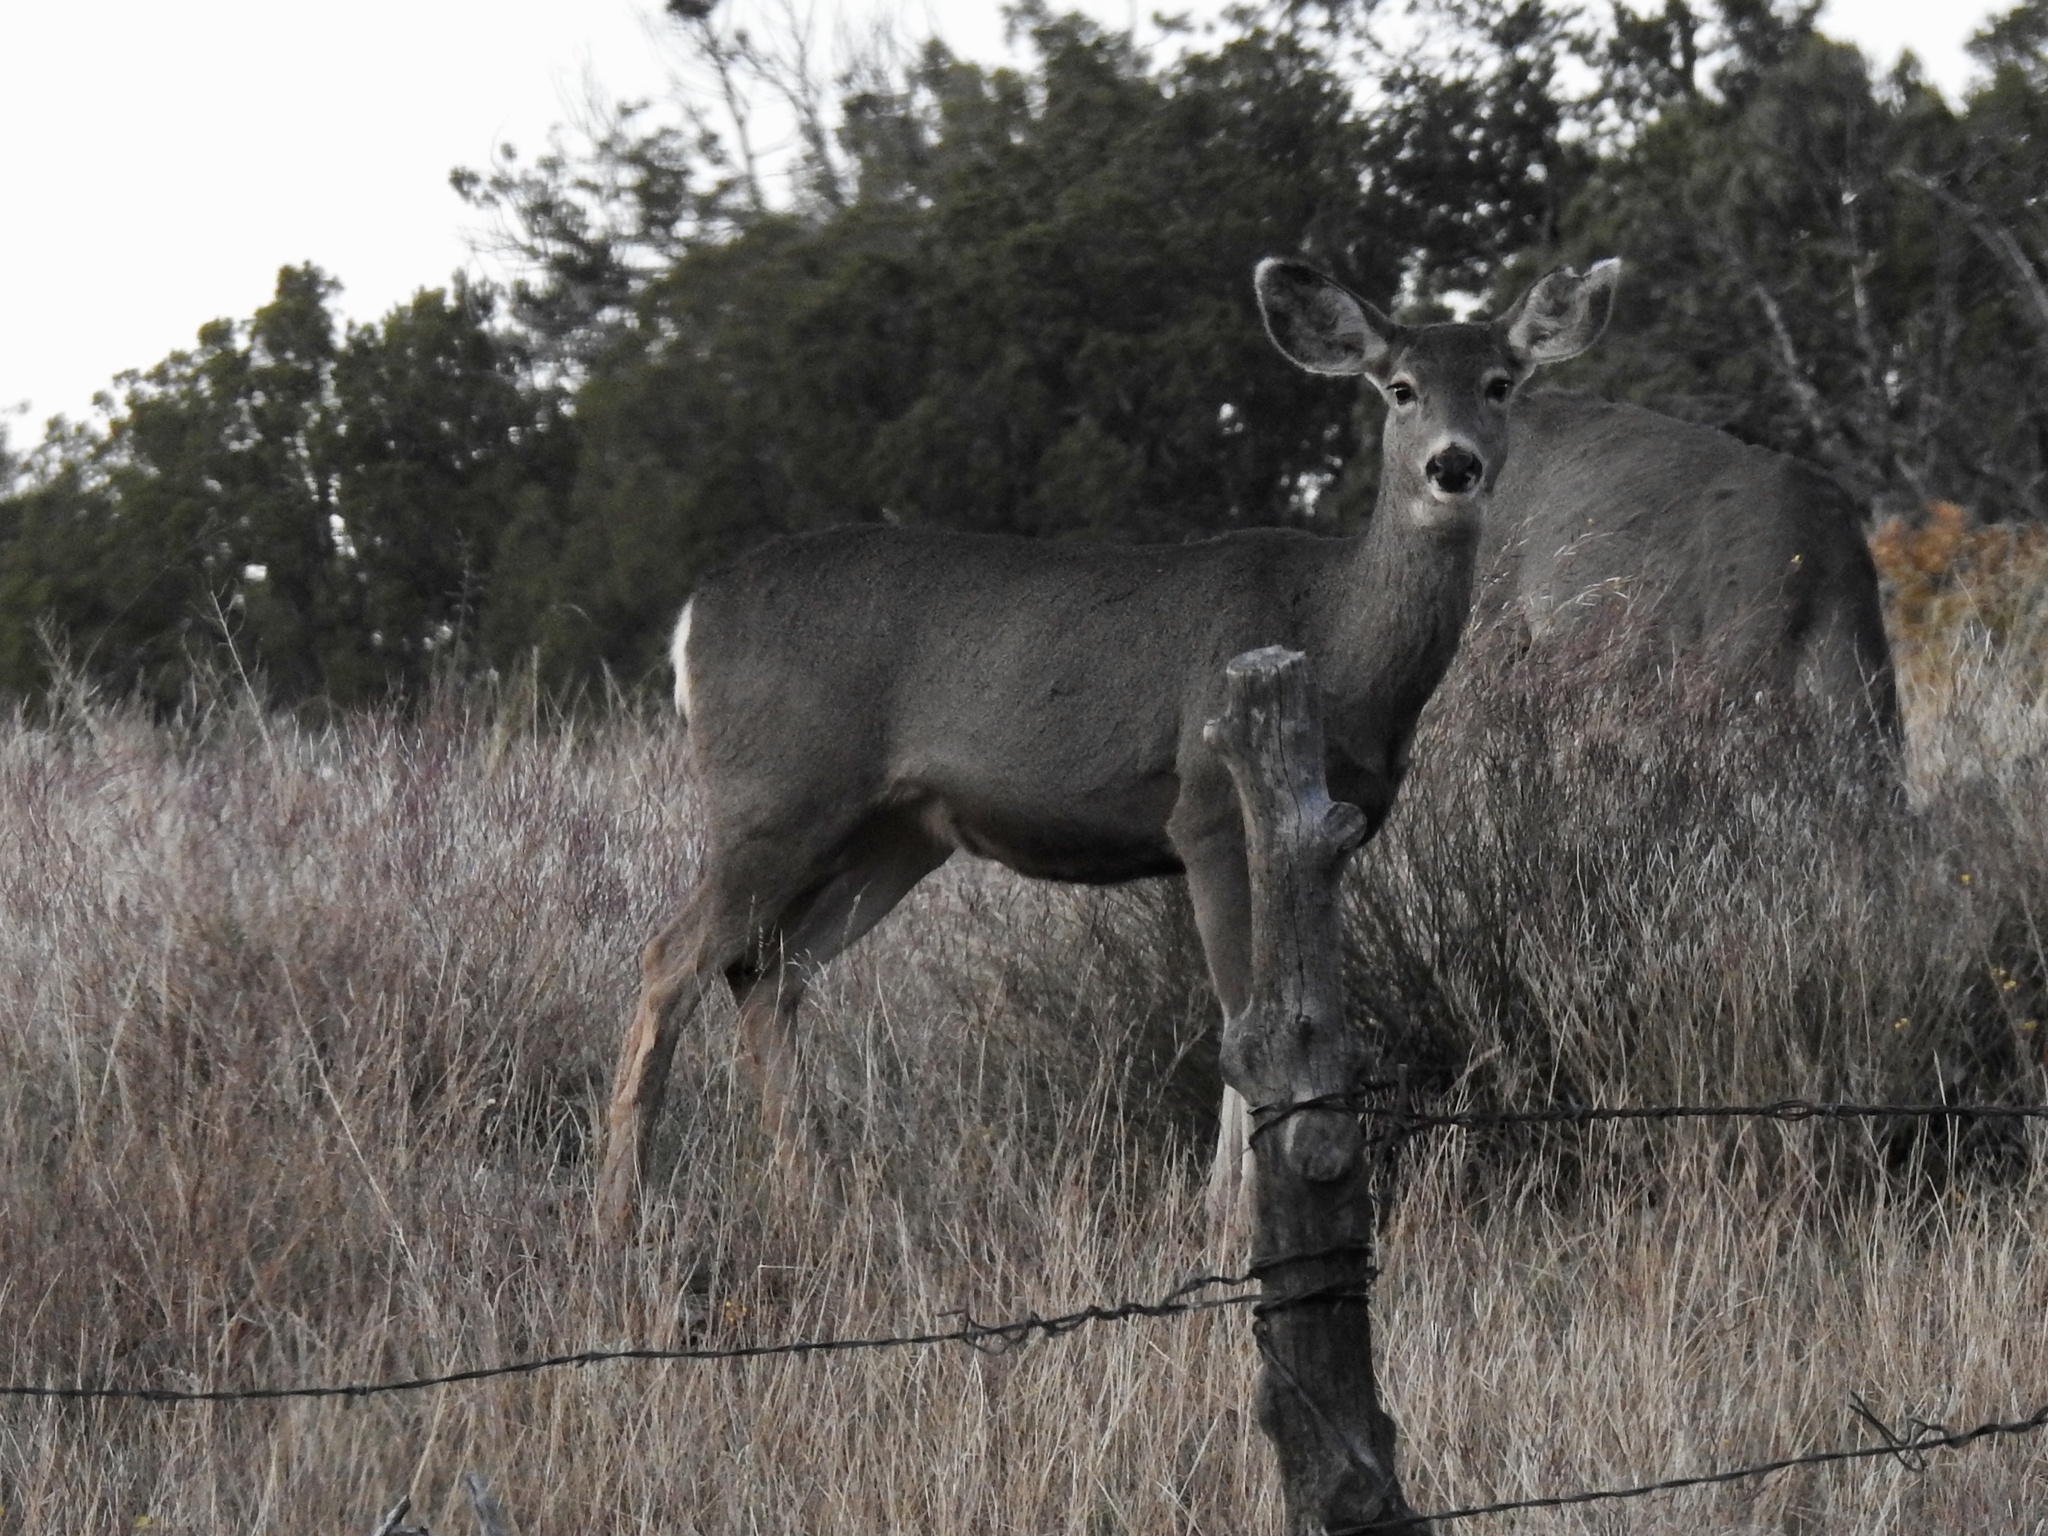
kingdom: Animalia
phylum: Chordata
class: Mammalia
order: Artiodactyla
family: Cervidae
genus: Odocoileus
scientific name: Odocoileus hemionus
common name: Mule deer
